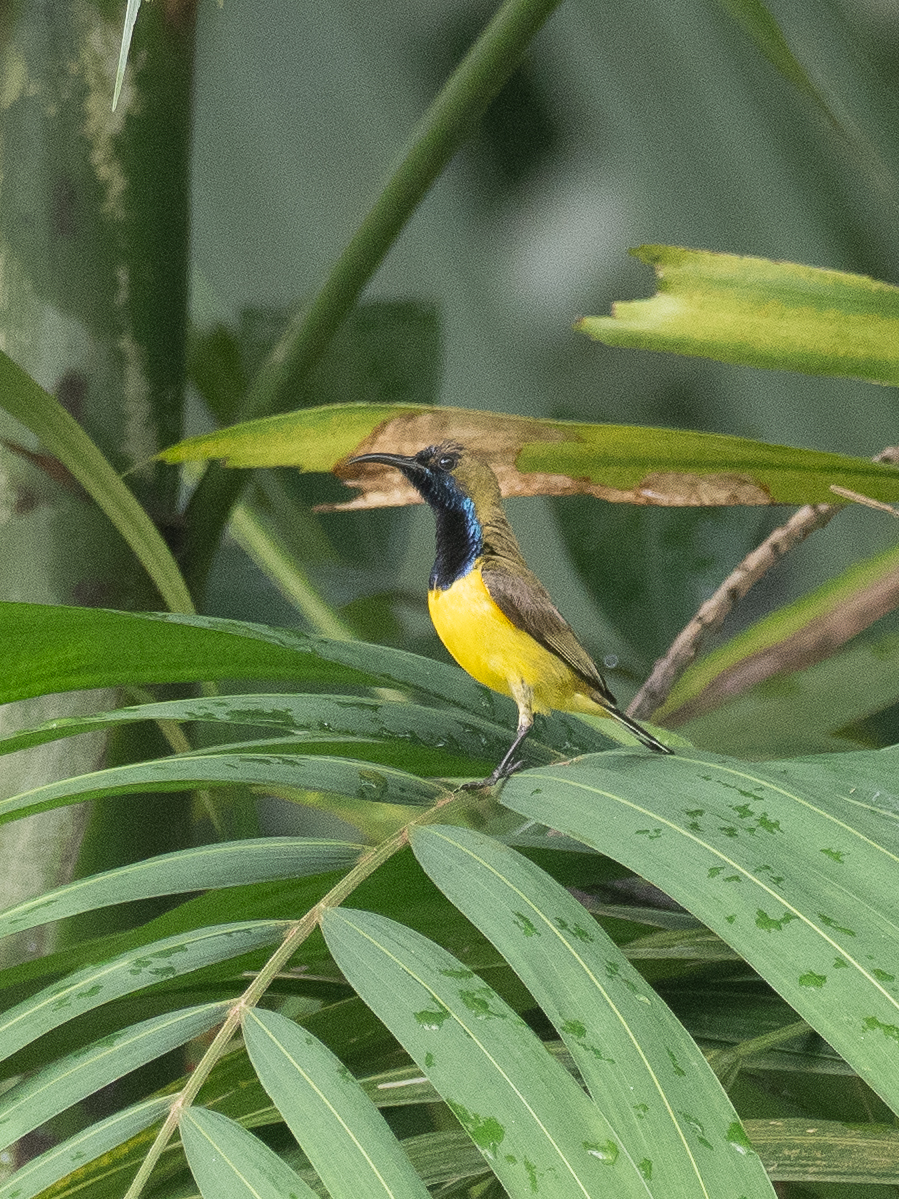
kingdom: Animalia
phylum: Chordata
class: Aves
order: Passeriformes
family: Nectariniidae
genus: Cinnyris
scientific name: Cinnyris
